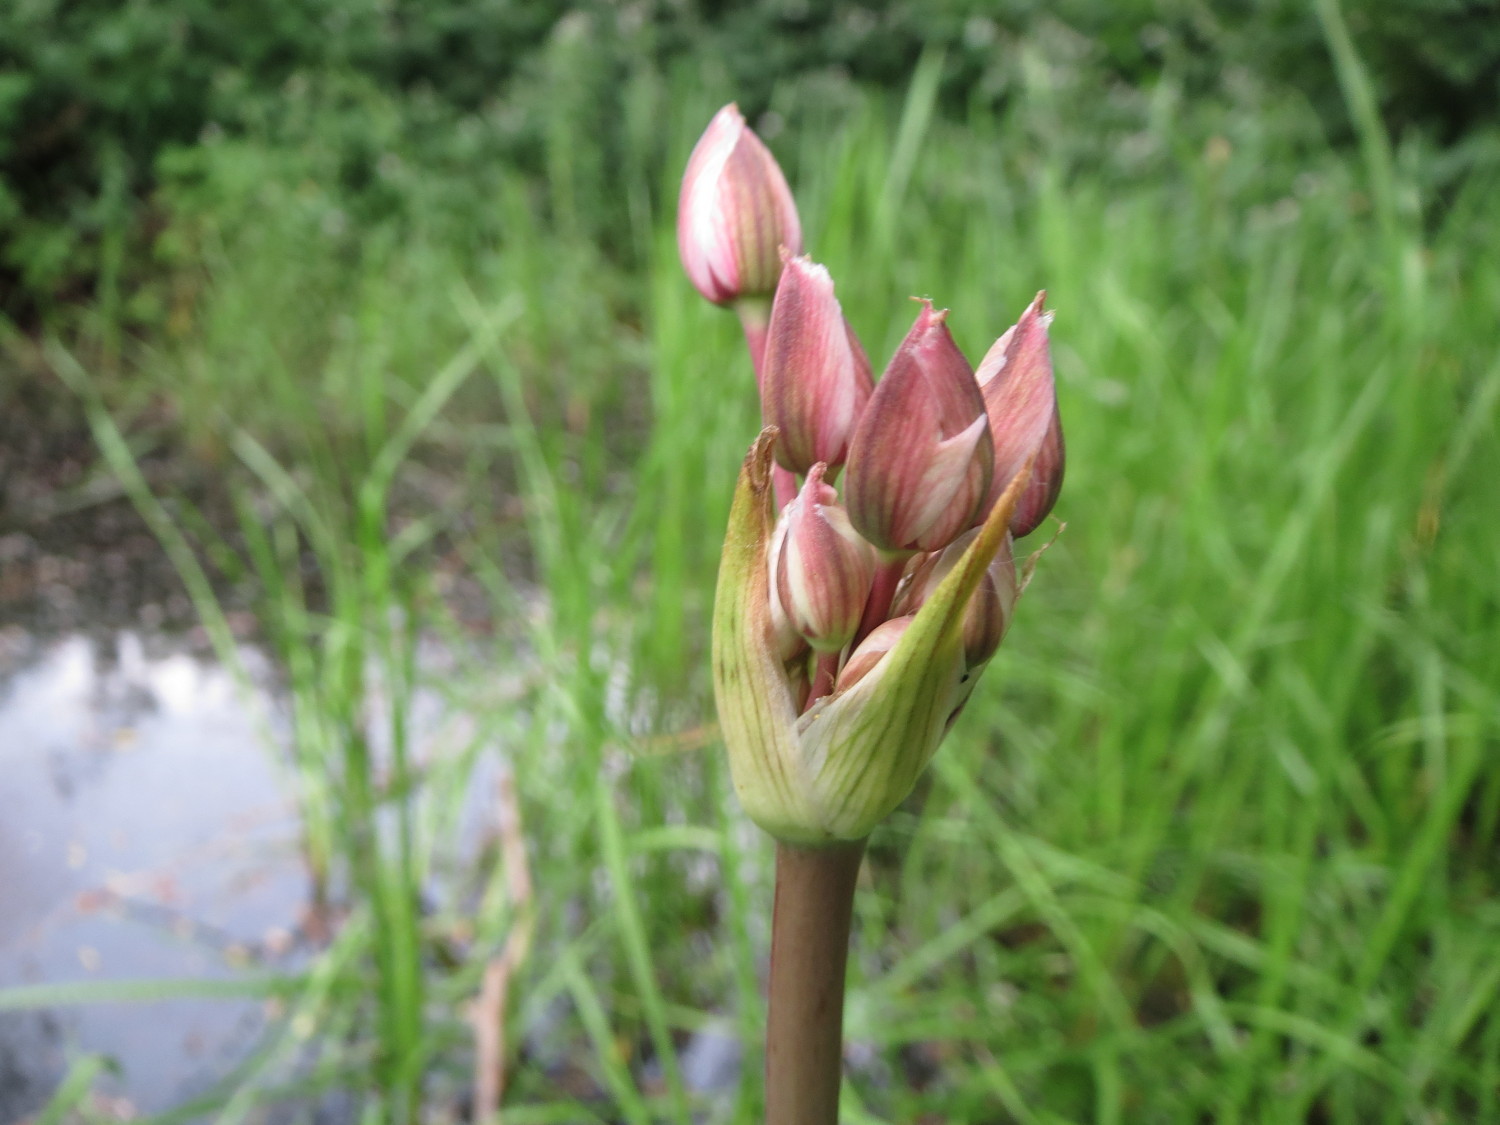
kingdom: Plantae
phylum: Tracheophyta
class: Liliopsida
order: Alismatales
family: Butomaceae
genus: Butomus
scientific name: Butomus umbellatus
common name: Flowering-rush
